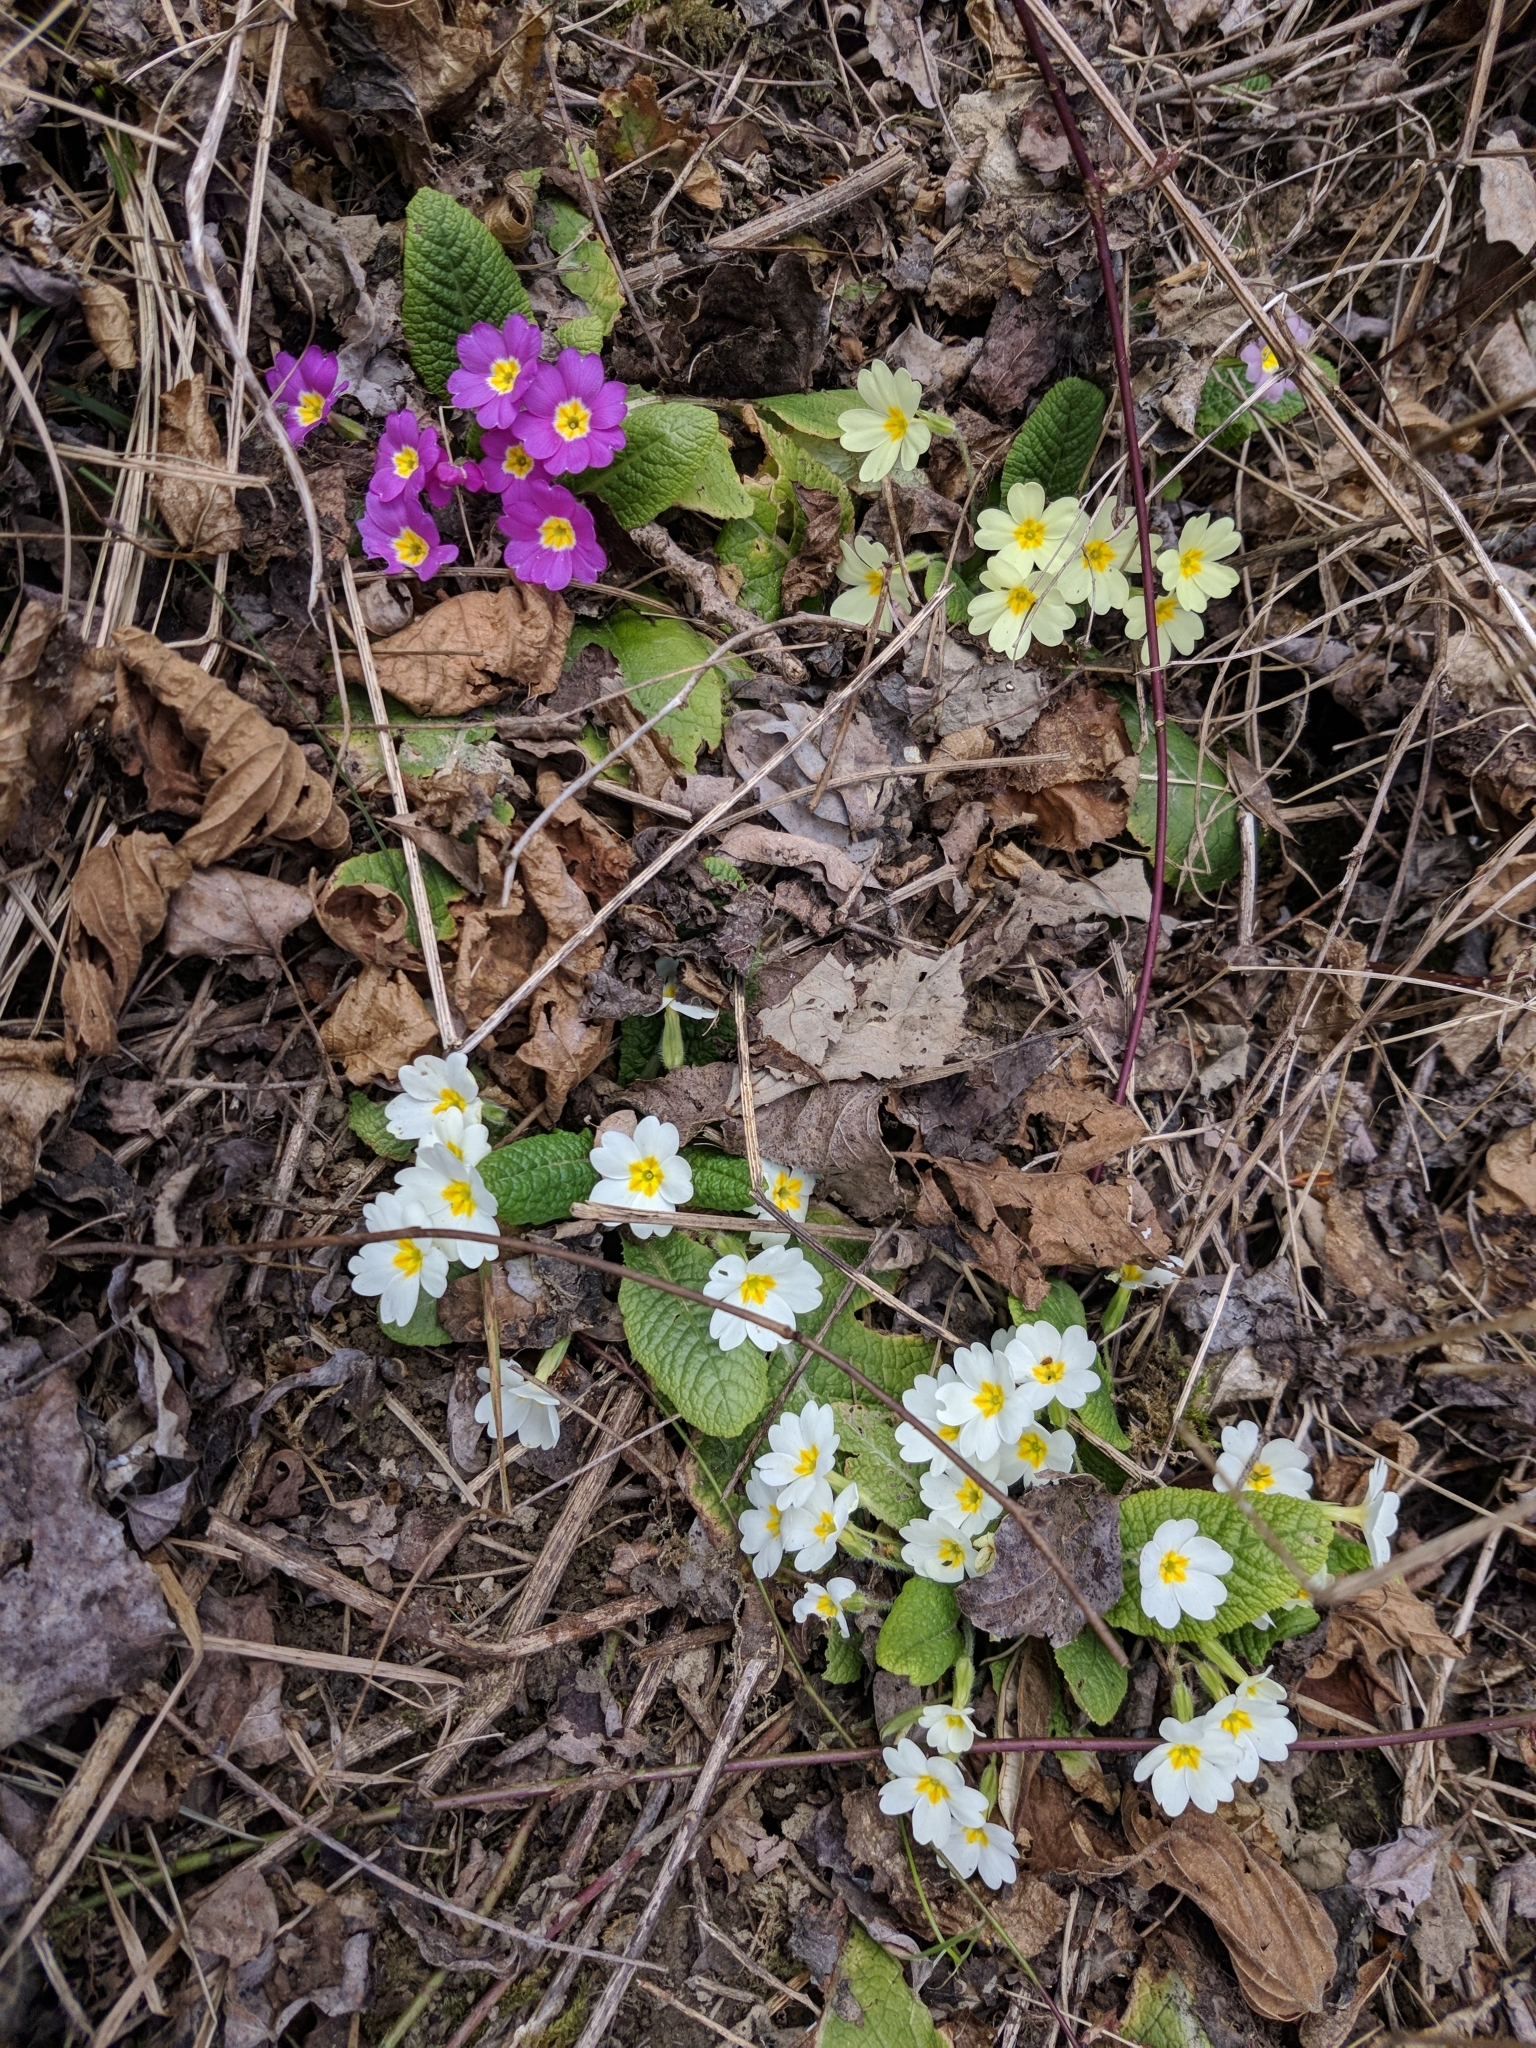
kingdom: Plantae
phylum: Tracheophyta
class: Magnoliopsida
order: Ericales
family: Primulaceae
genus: Primula
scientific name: Primula vulgaris
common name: Primrose
